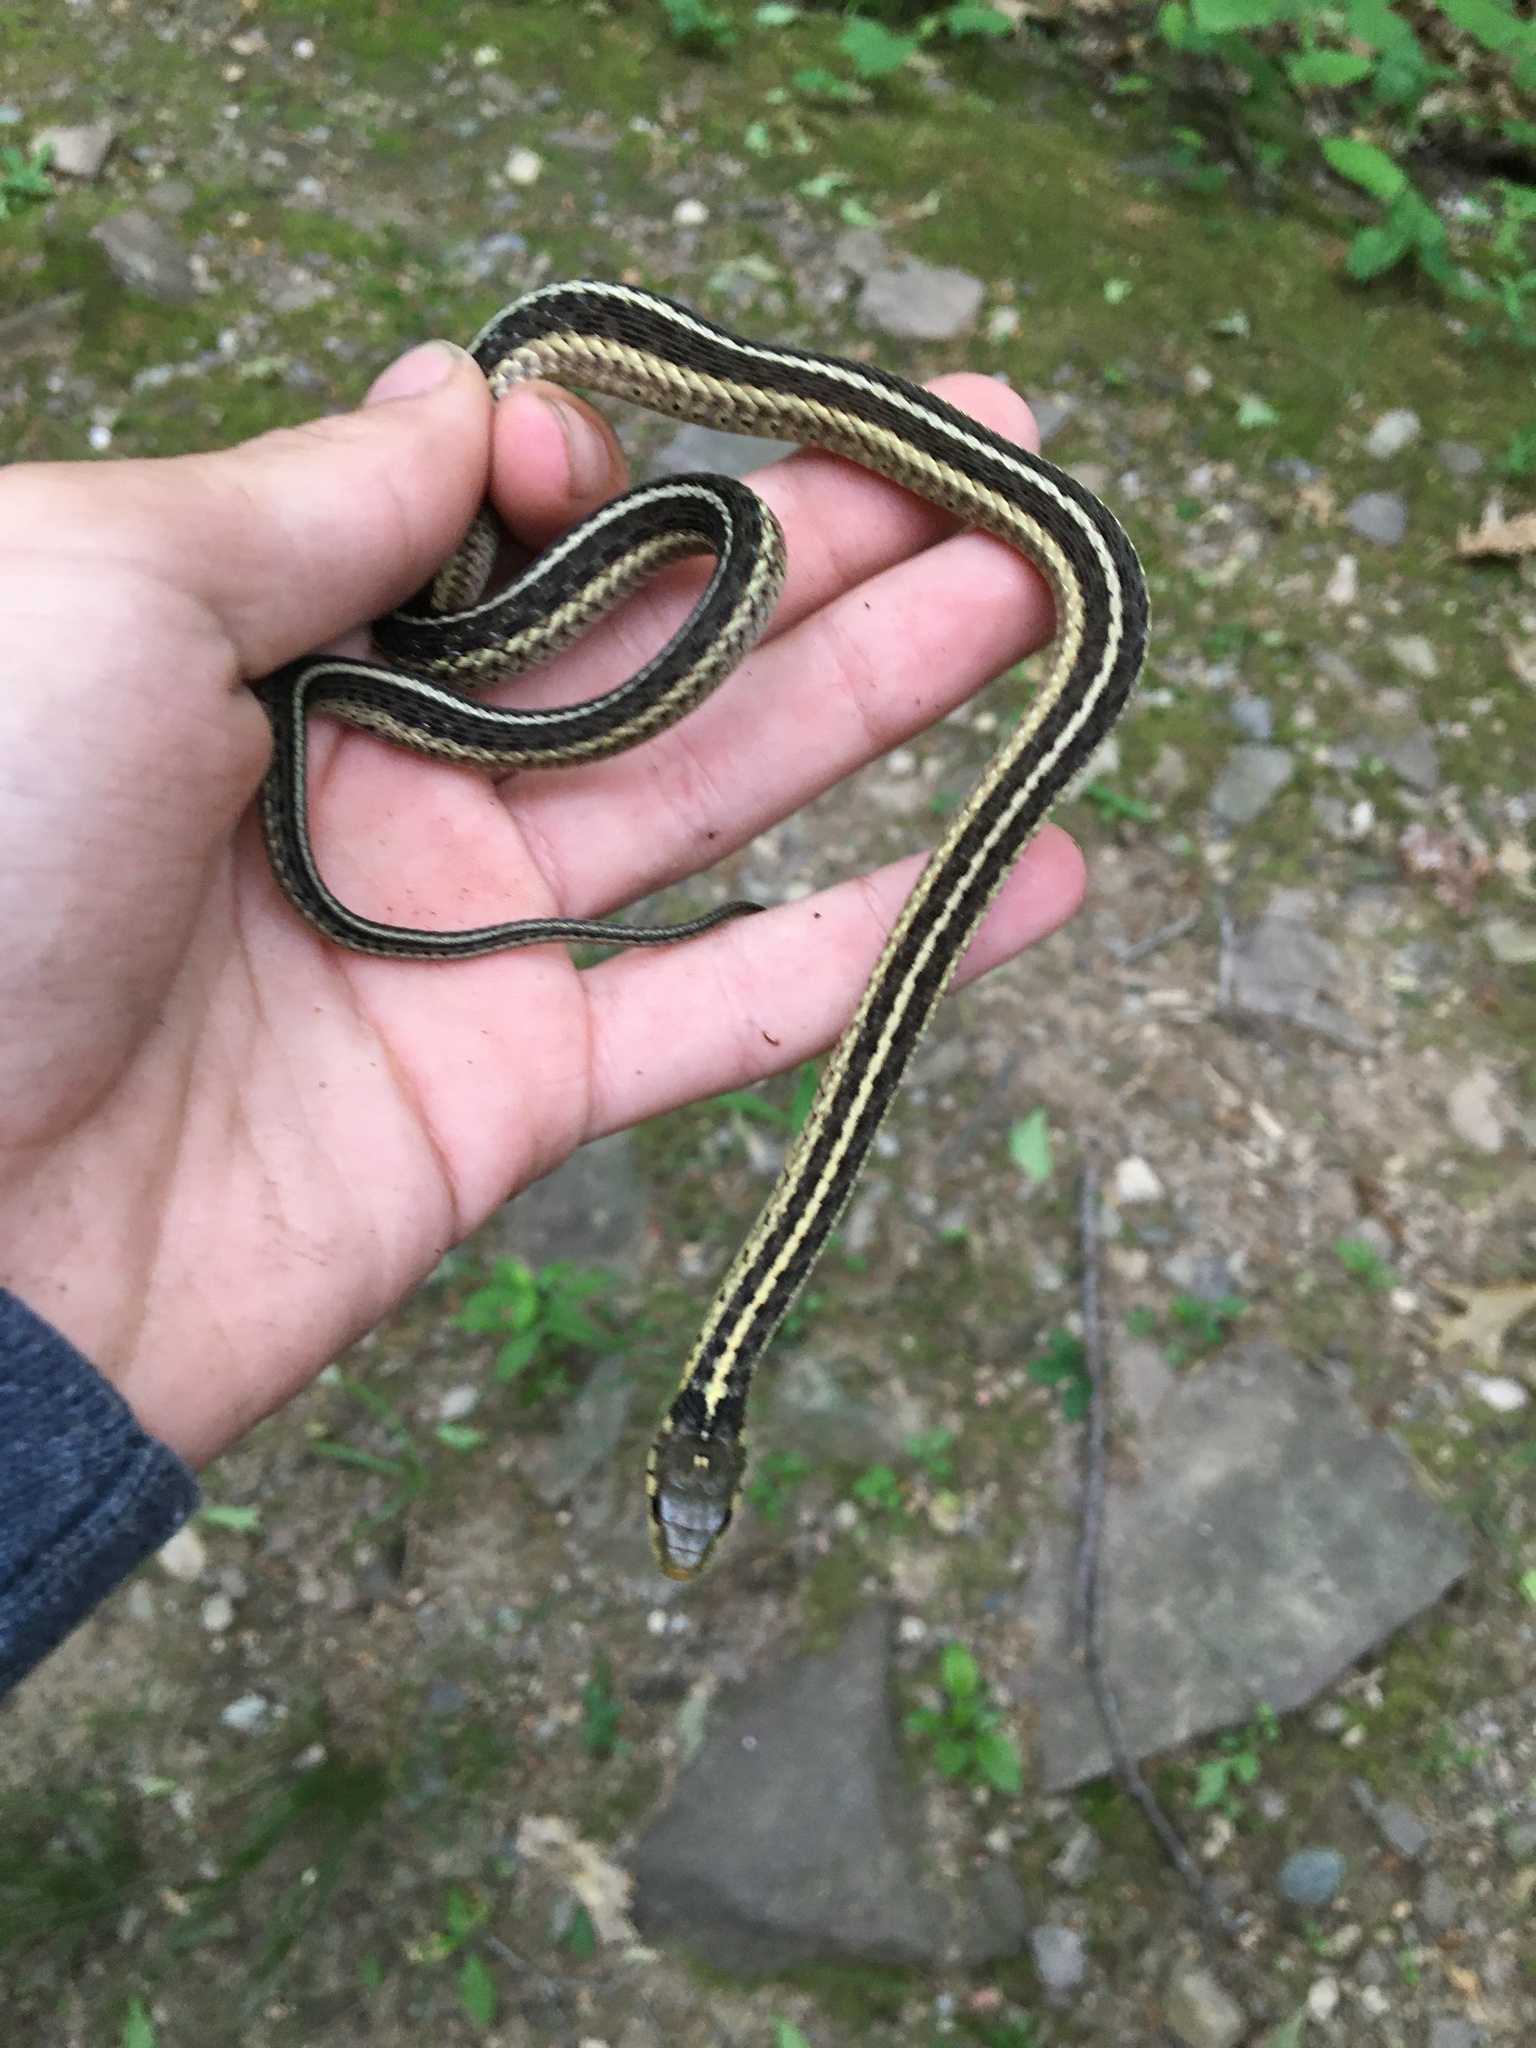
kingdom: Animalia
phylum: Chordata
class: Squamata
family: Colubridae
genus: Thamnophis
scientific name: Thamnophis sirtalis
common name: Common garter snake
